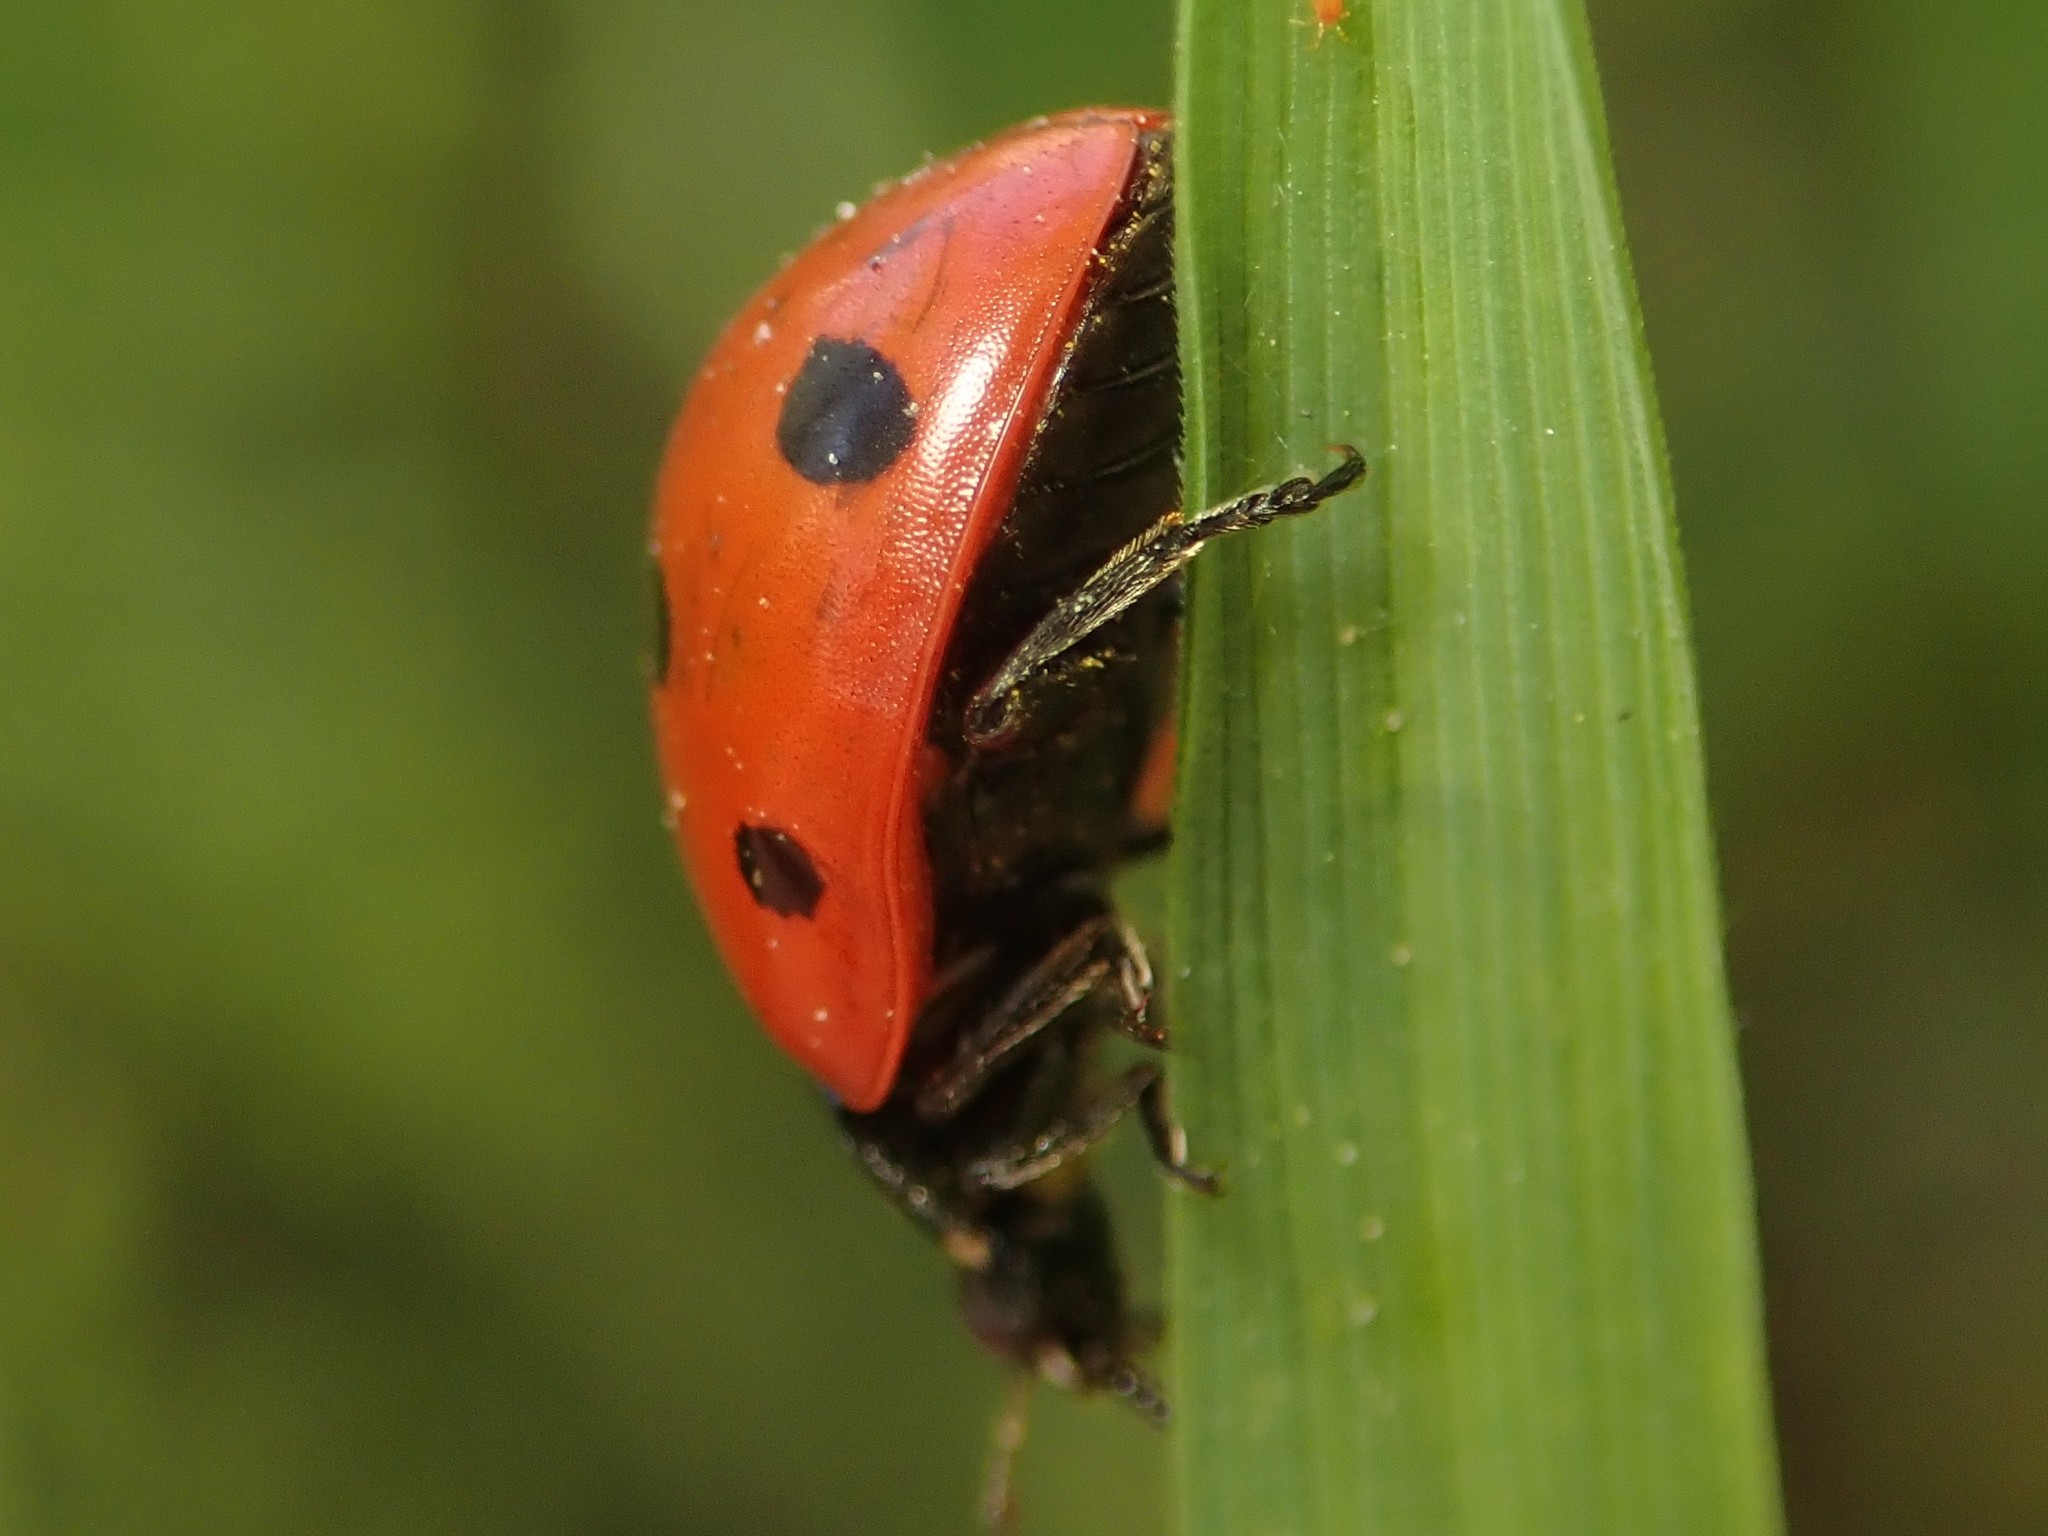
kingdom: Animalia
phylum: Arthropoda
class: Insecta
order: Coleoptera
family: Coccinellidae
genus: Coccinella
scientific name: Coccinella septempunctata
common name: Sevenspotted lady beetle
